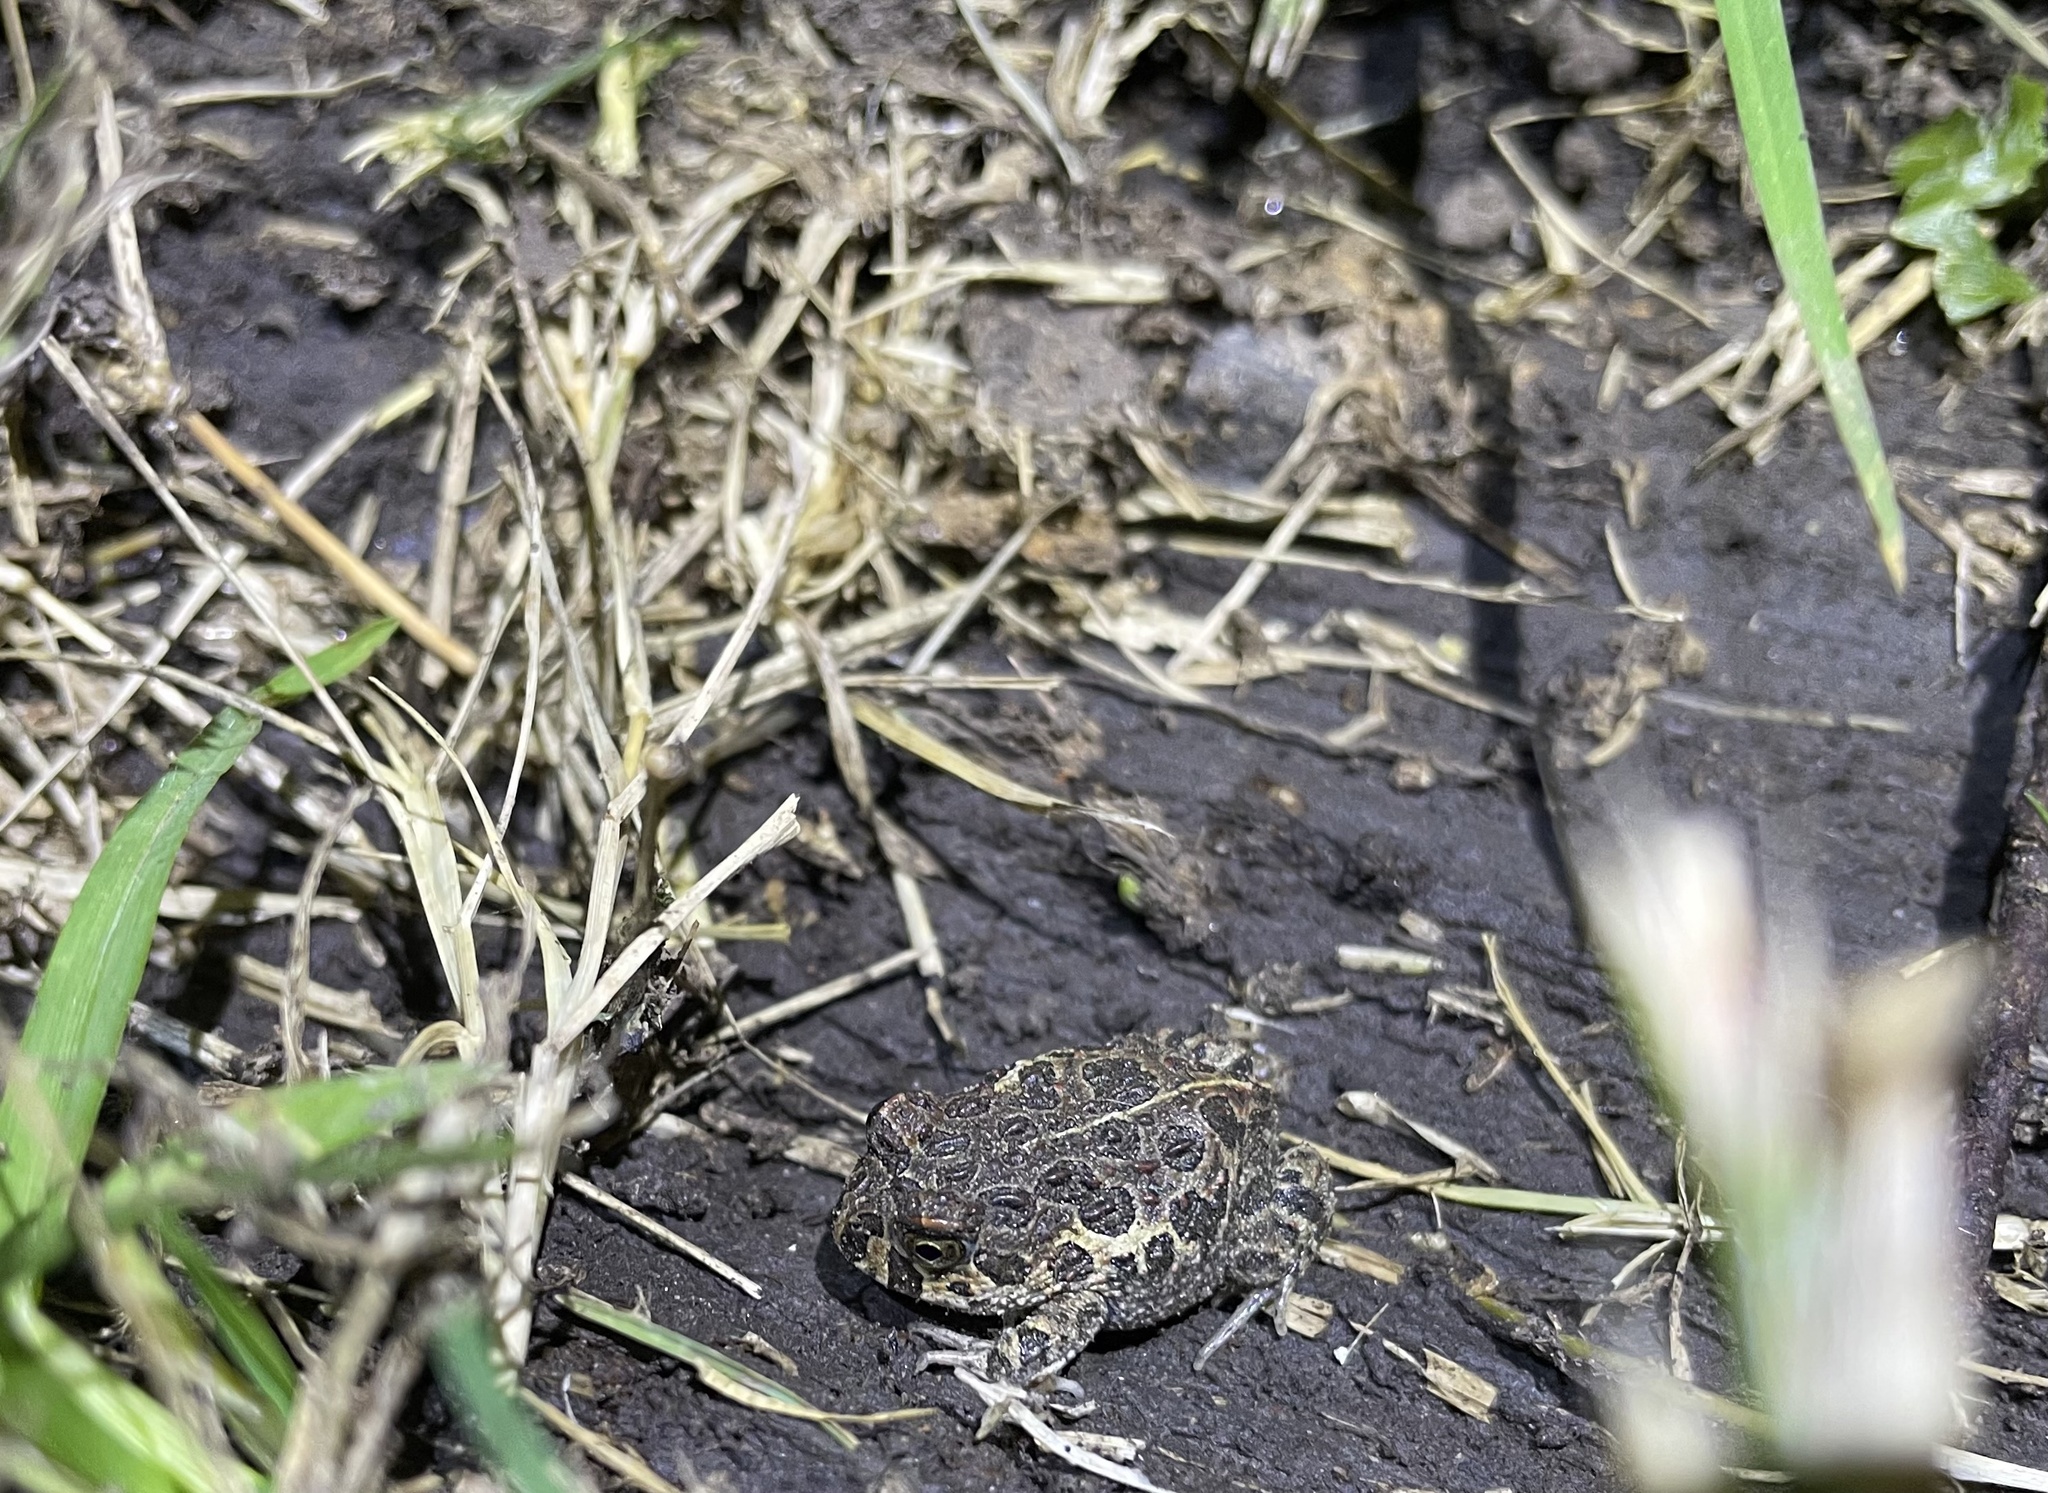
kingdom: Animalia
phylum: Chordata
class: Amphibia
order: Anura
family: Odontophrynidae
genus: Odontophrynus
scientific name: Odontophrynus
